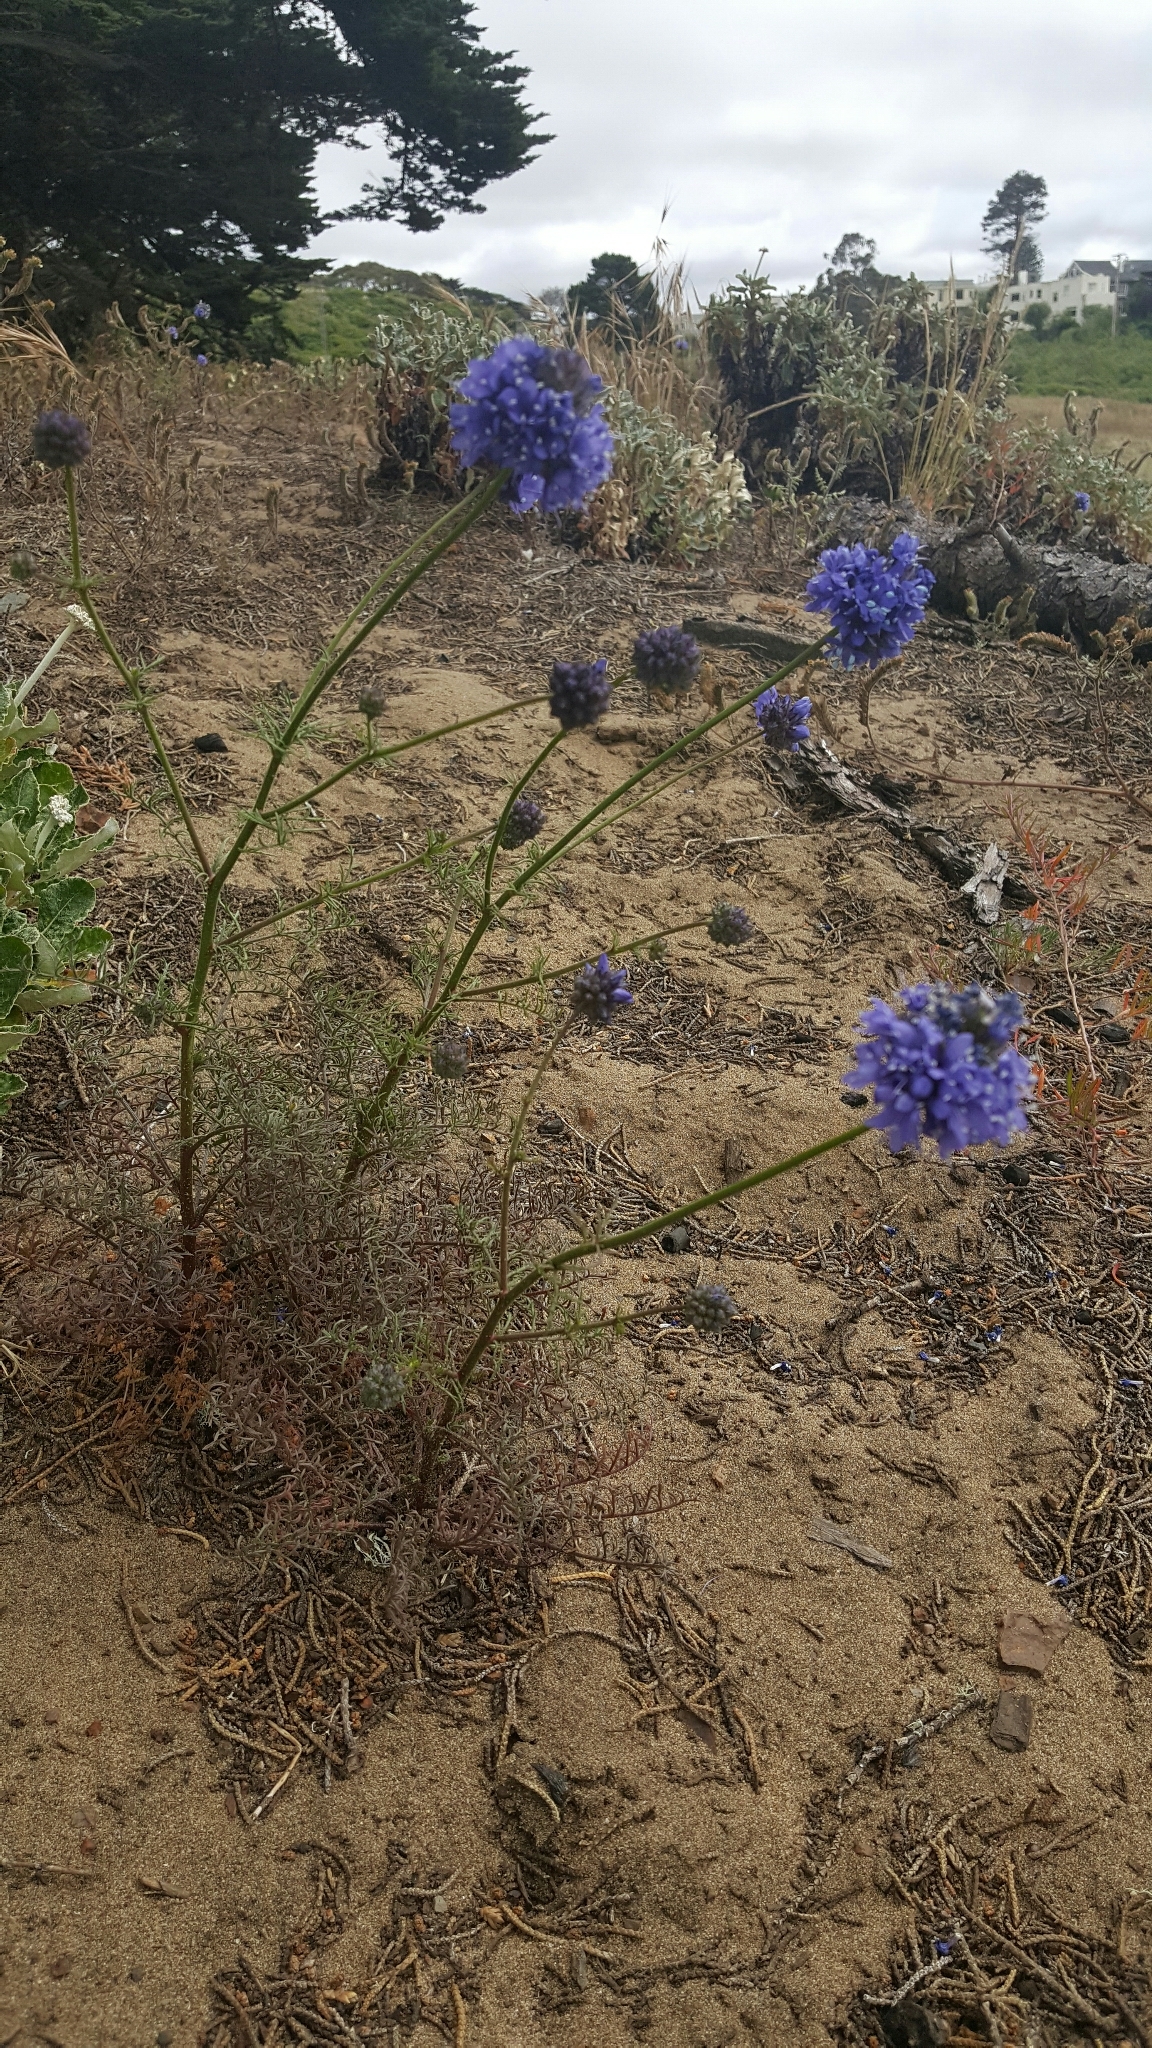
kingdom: Plantae
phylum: Tracheophyta
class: Magnoliopsida
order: Ericales
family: Polemoniaceae
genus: Gilia
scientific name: Gilia capitata
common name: Bluehead gilia
